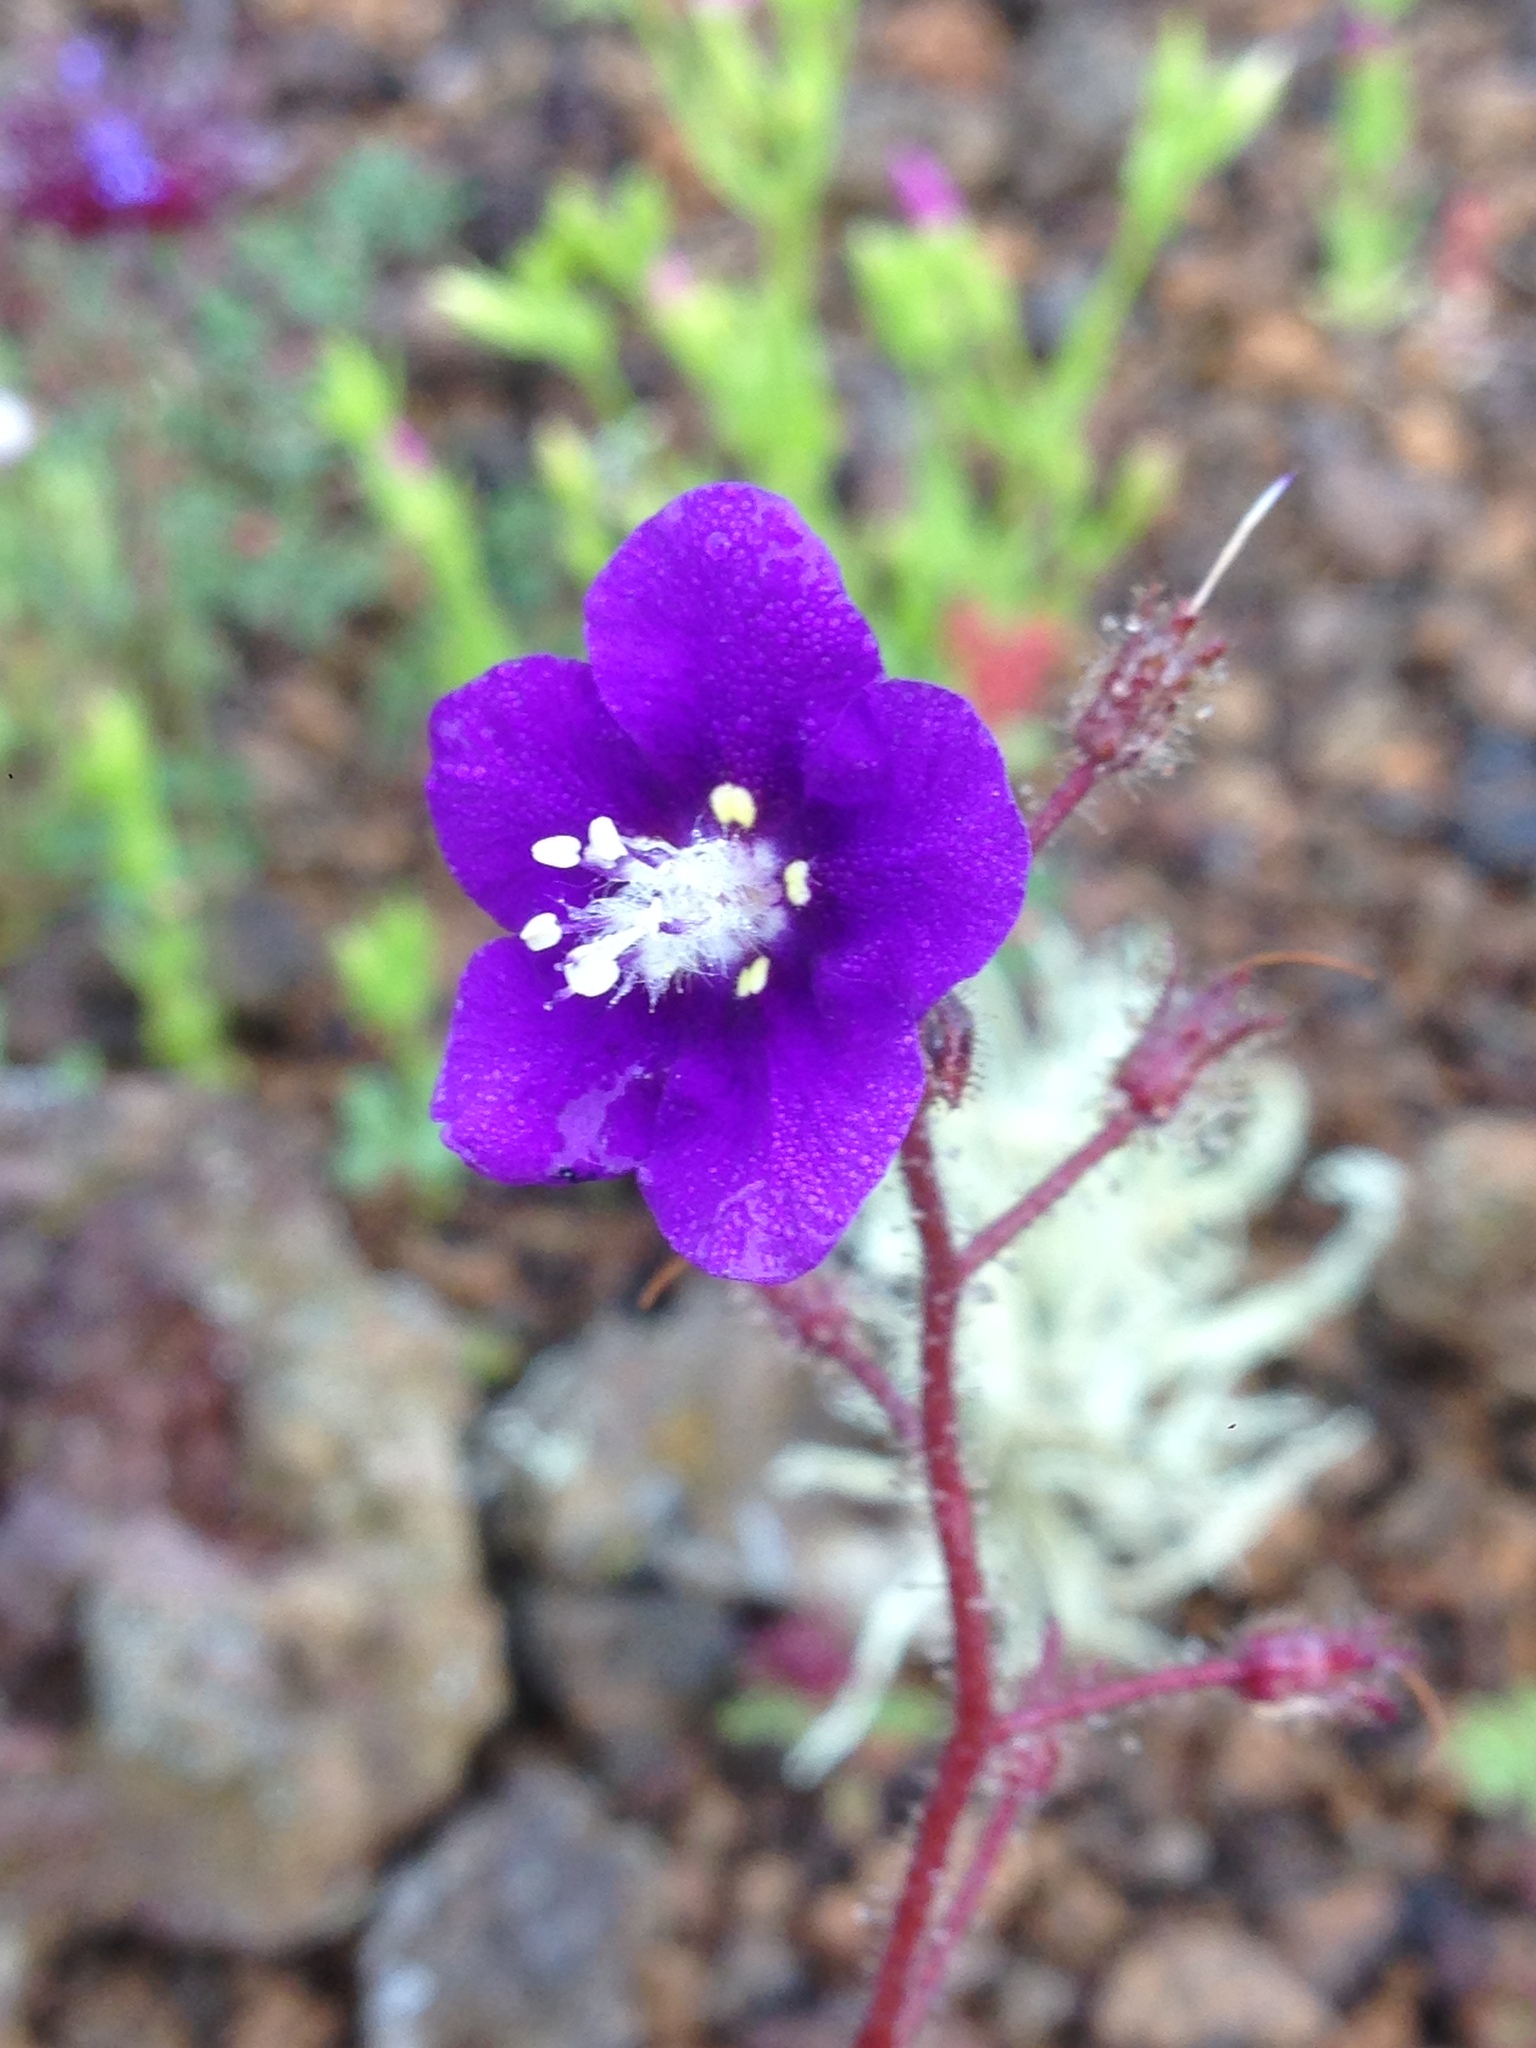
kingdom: Plantae
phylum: Tracheophyta
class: Magnoliopsida
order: Boraginales
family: Hydrophyllaceae
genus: Phacelia
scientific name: Phacelia parryi
